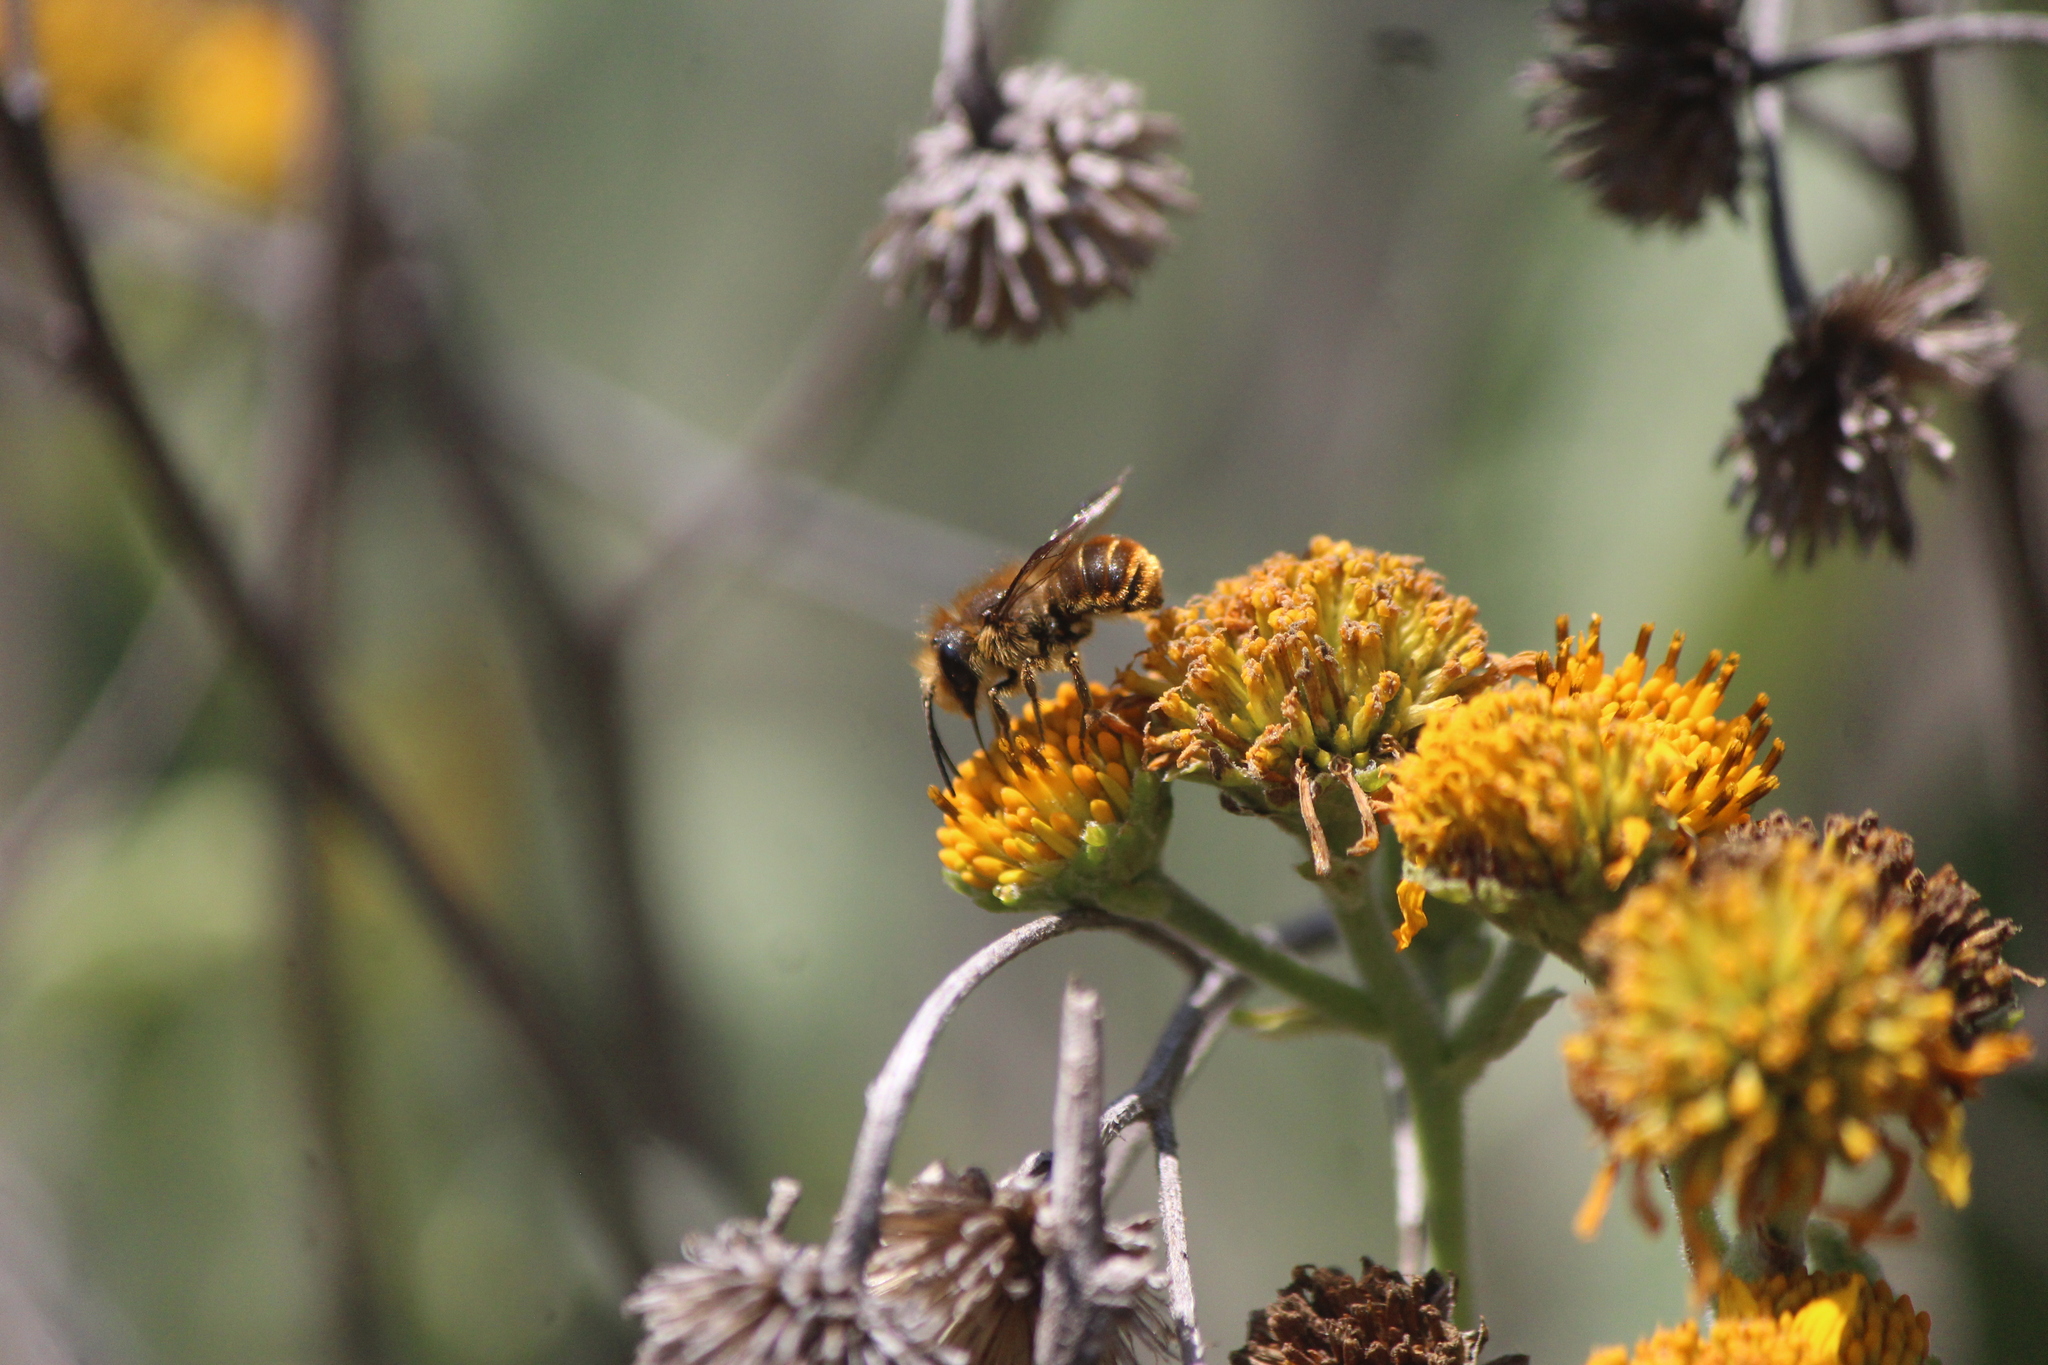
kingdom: Animalia
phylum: Arthropoda
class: Insecta
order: Hymenoptera
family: Megachilidae
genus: Osmia
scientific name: Osmia azteca
